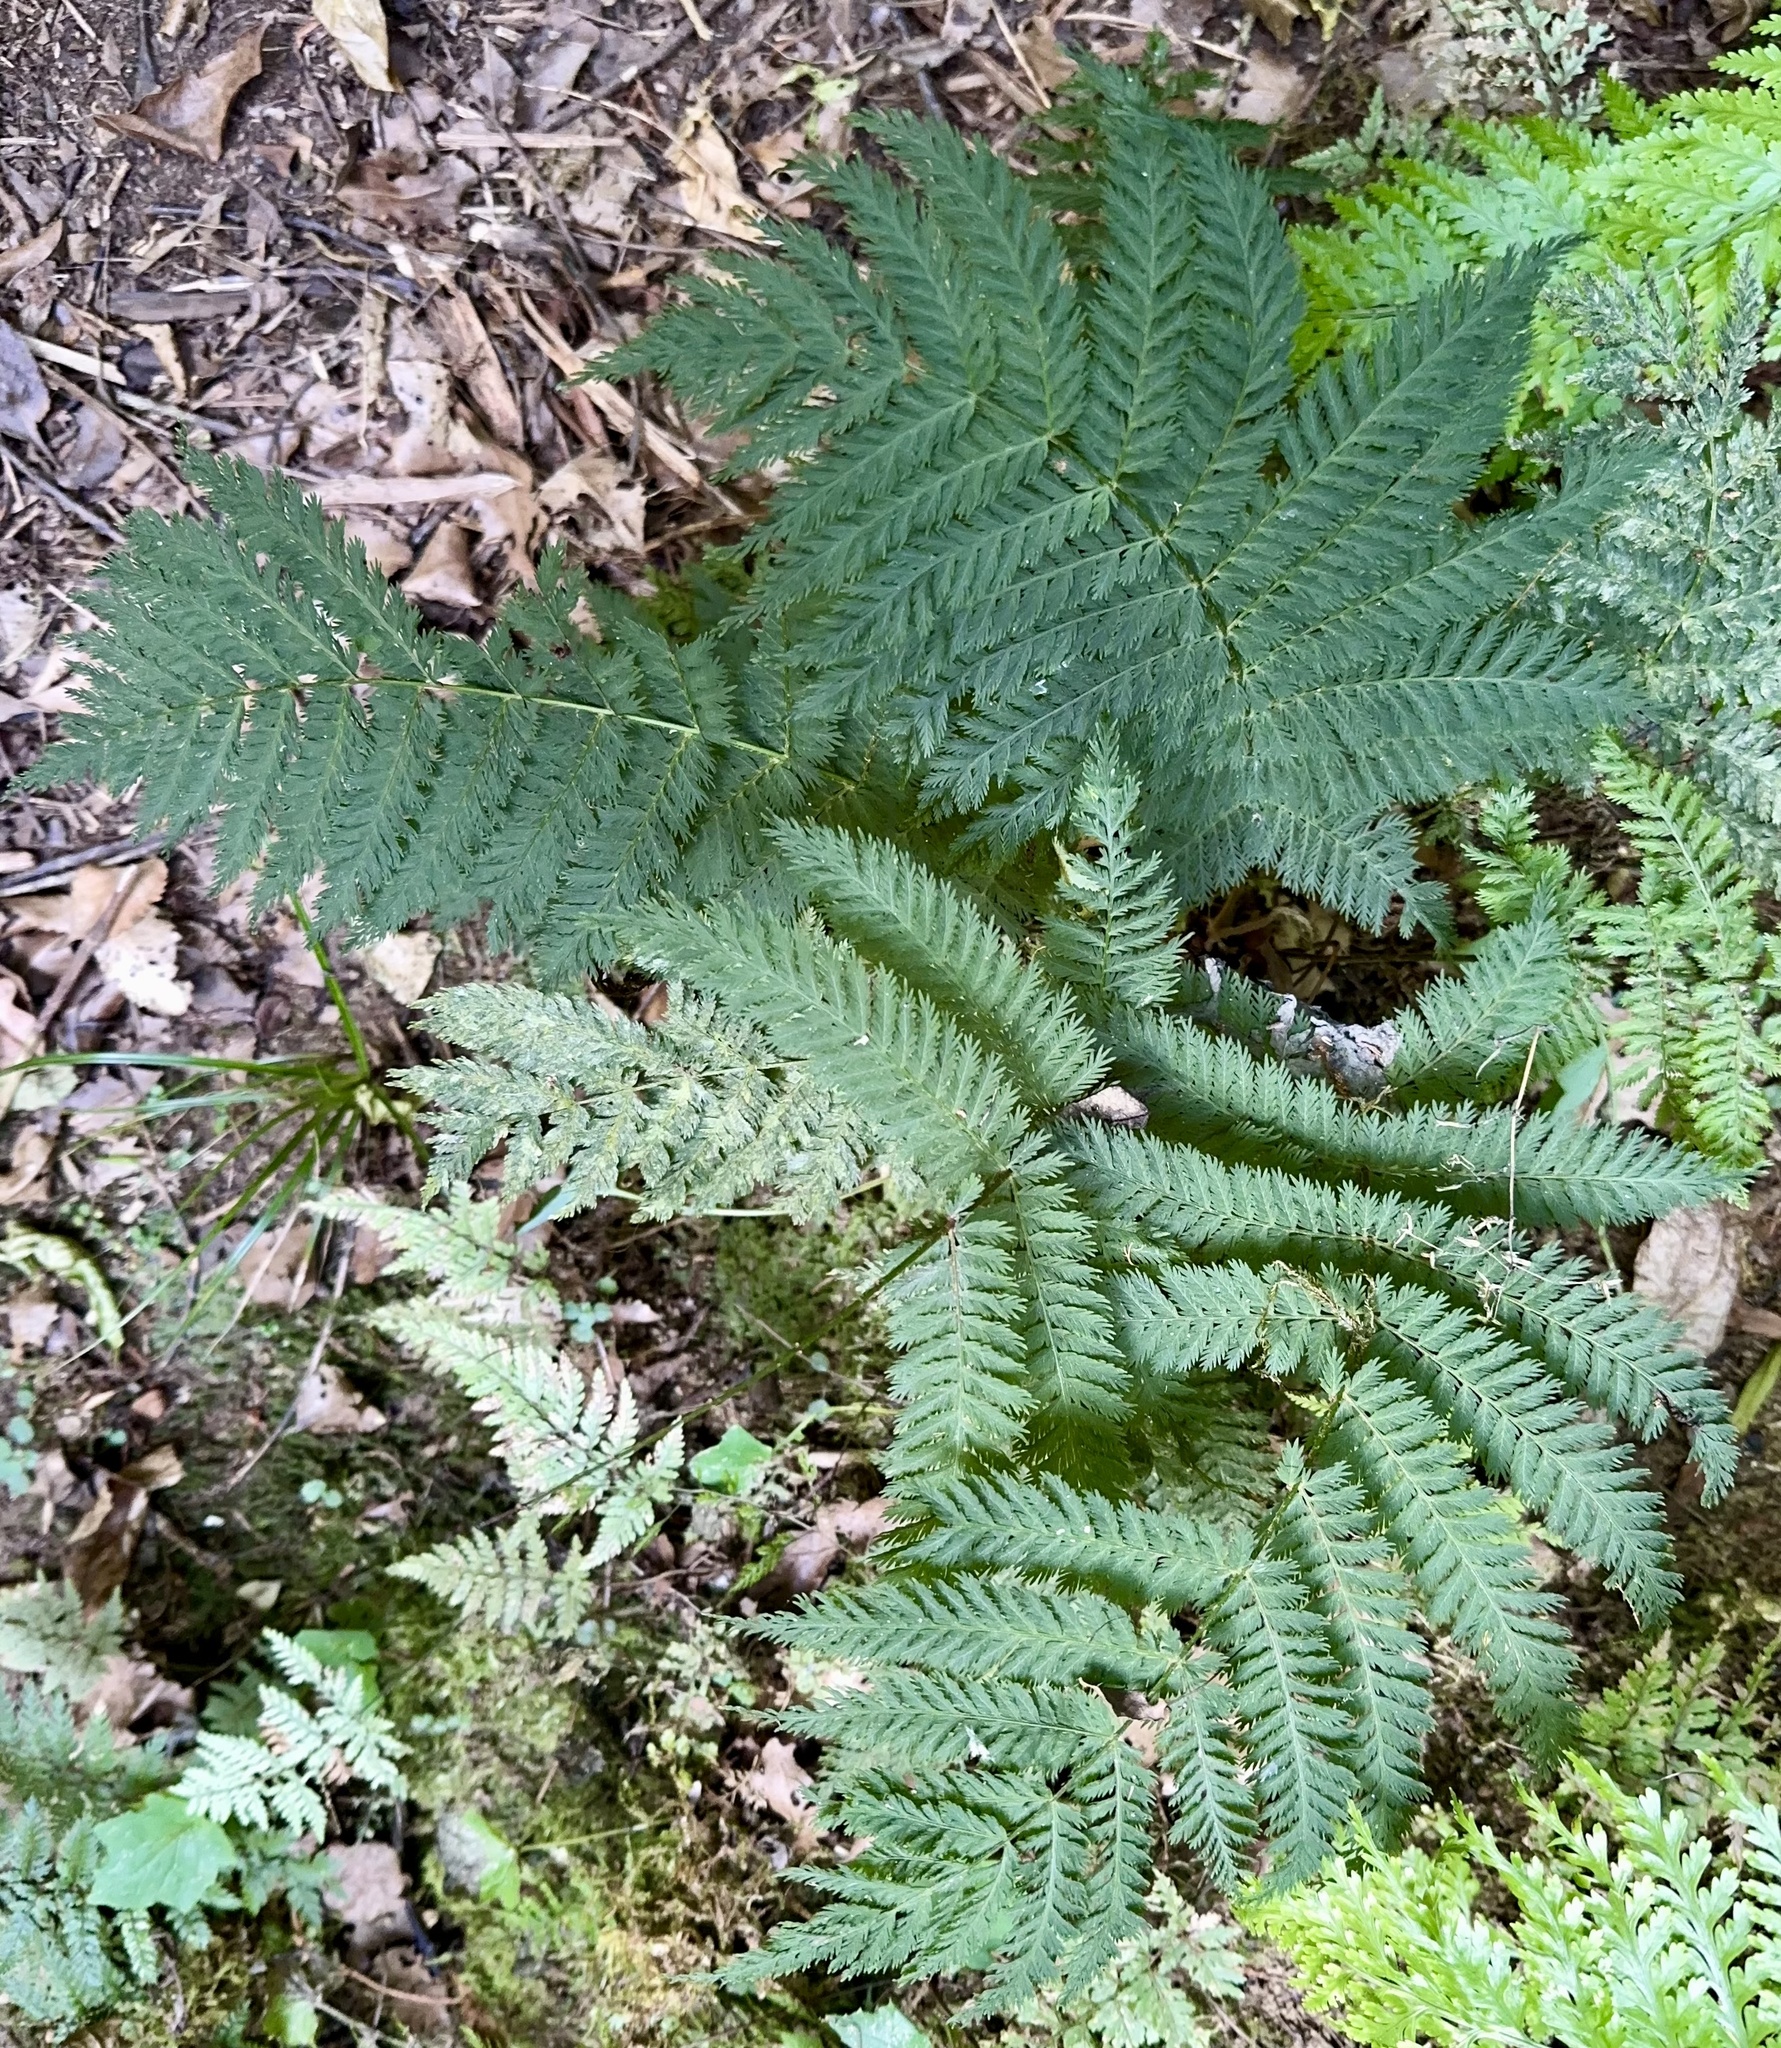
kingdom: Plantae
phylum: Tracheophyta
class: Polypodiopsida
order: Osmundales
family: Osmundaceae
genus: Leptopteris
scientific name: Leptopteris hymenophylloides
